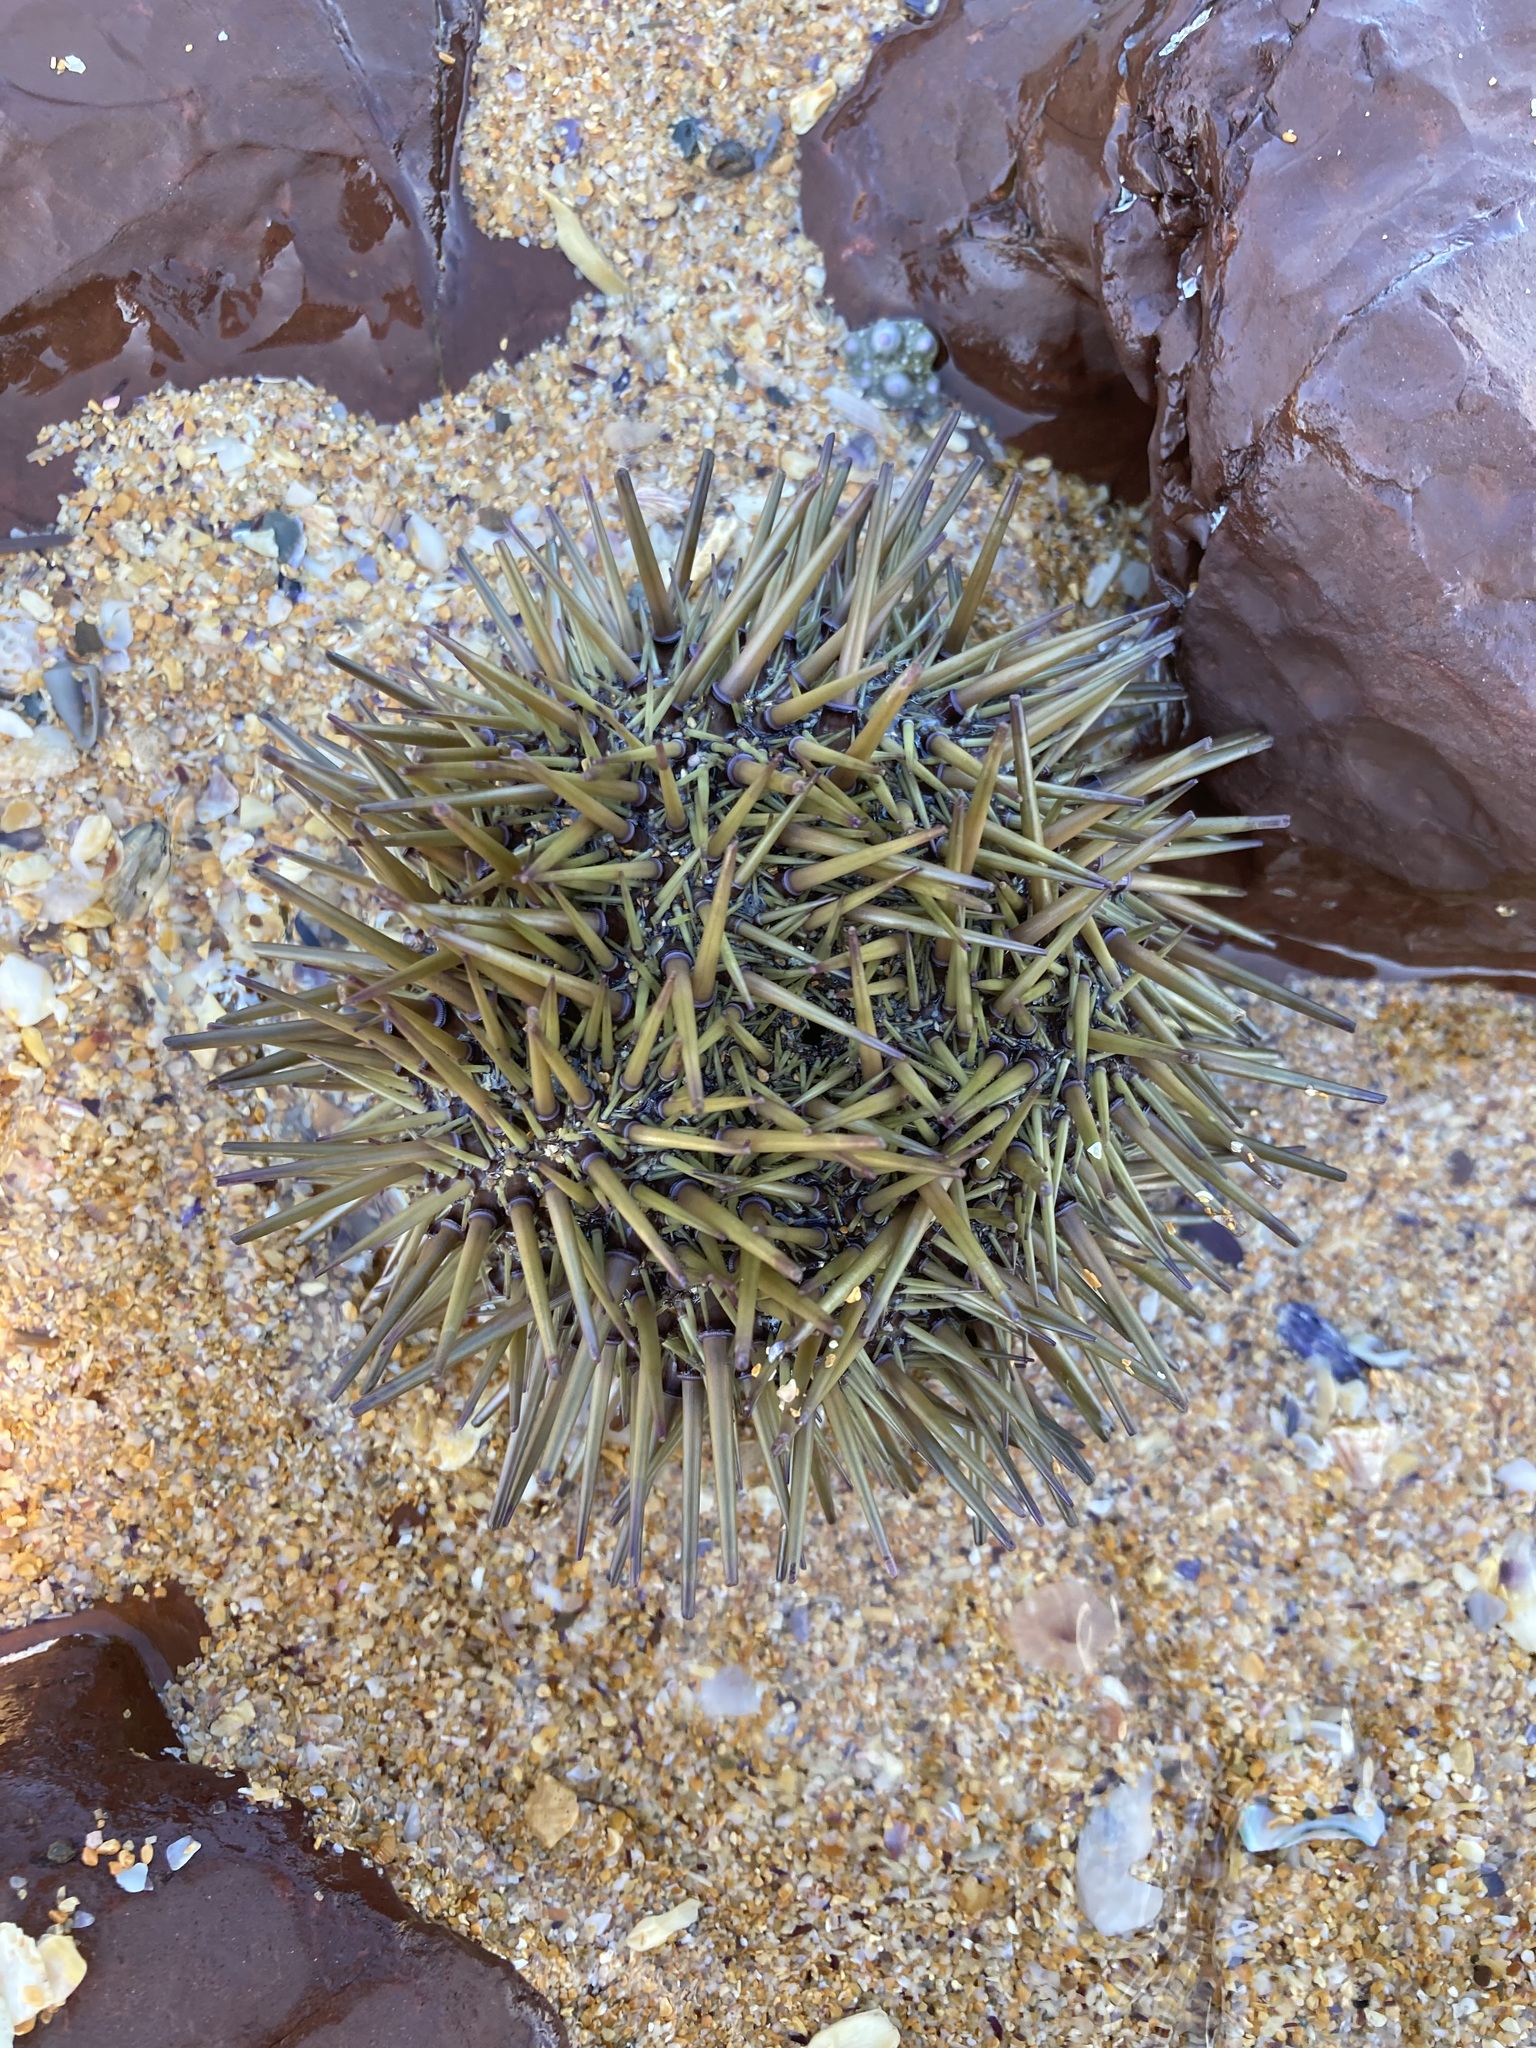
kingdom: Animalia
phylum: Echinodermata
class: Echinoidea
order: Camarodonta
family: Echinometridae
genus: Heliocidaris
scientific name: Heliocidaris erythrogramma
